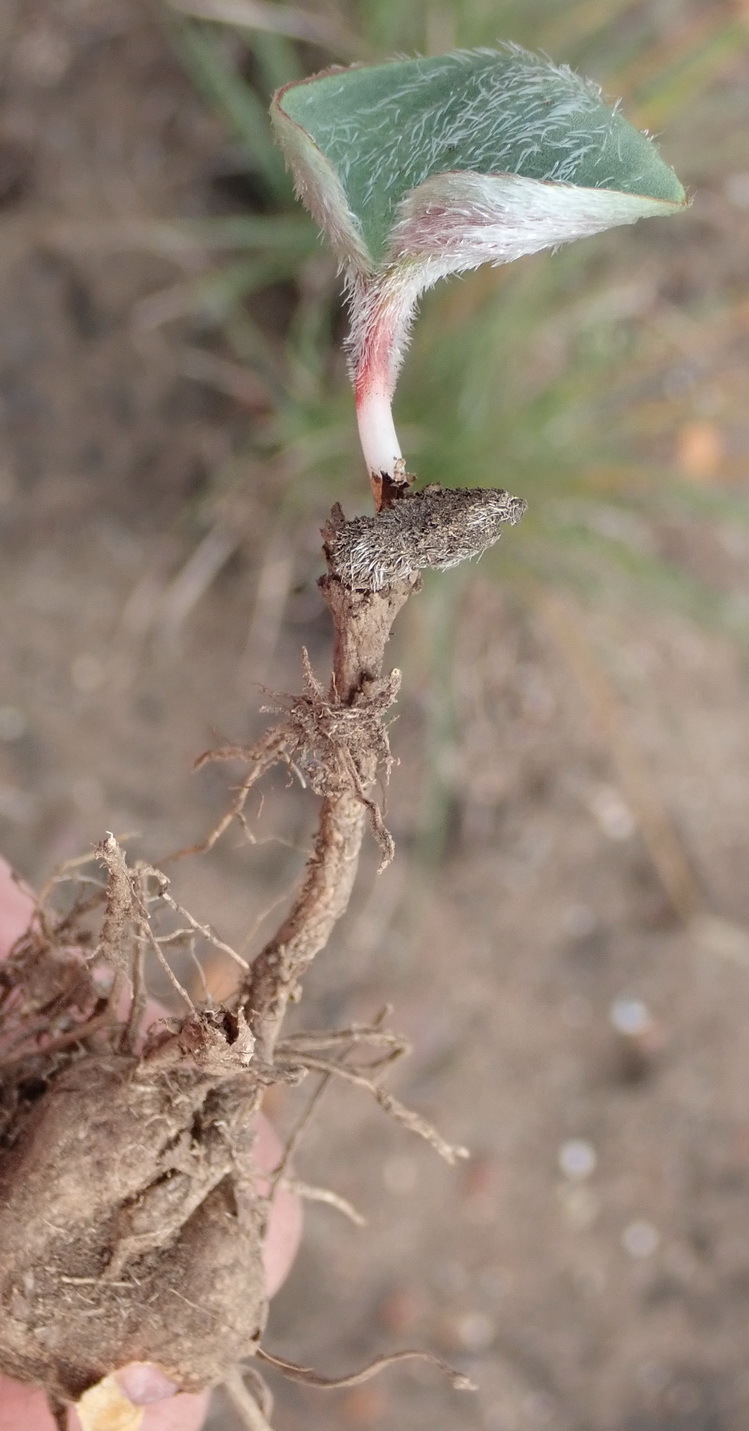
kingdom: Plantae
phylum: Tracheophyta
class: Liliopsida
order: Asparagales
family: Asparagaceae
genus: Eriospermum
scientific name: Eriospermum pubescens
